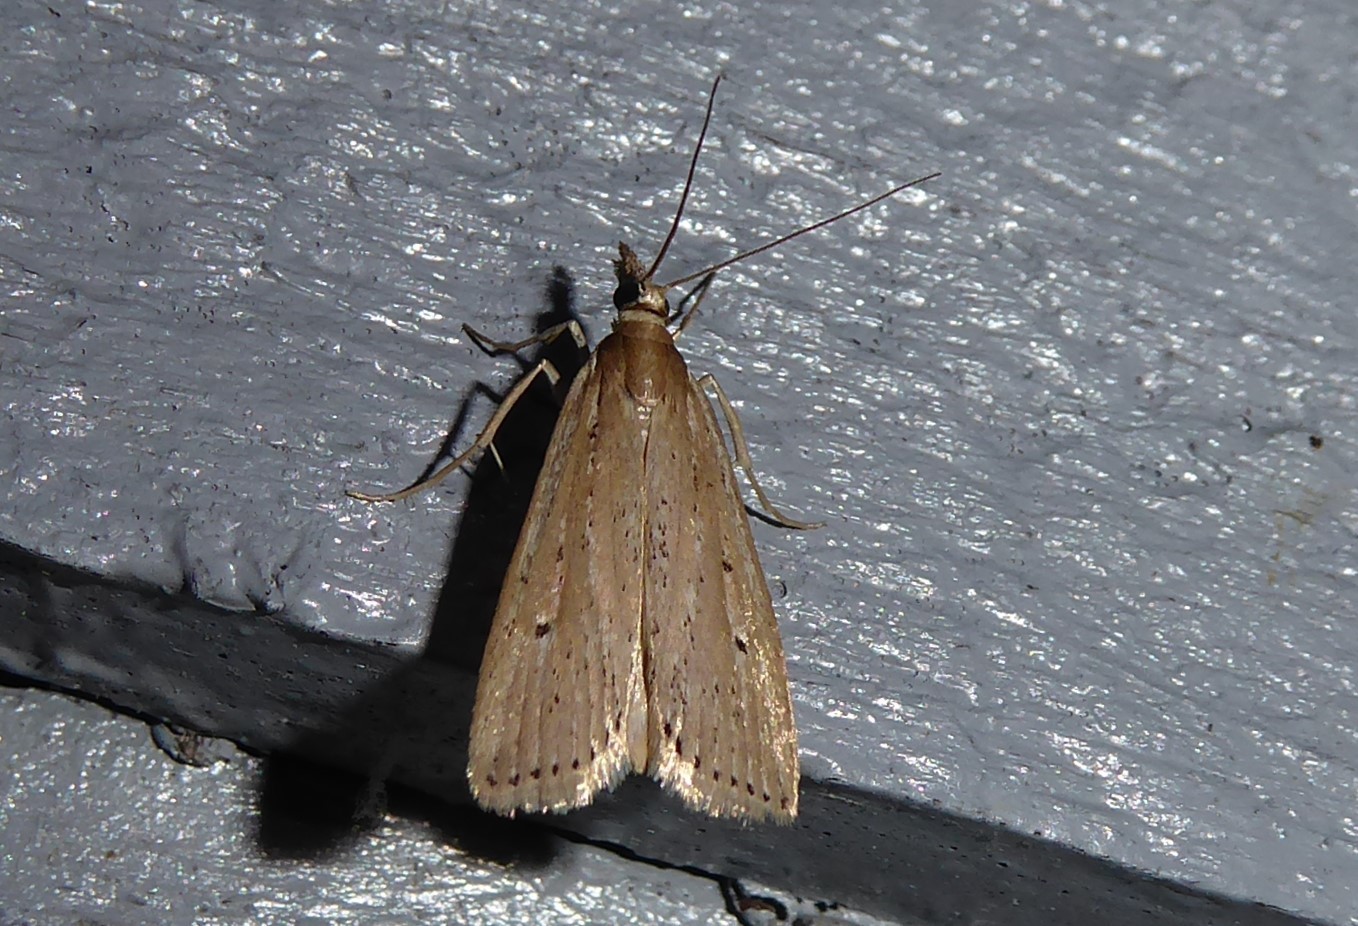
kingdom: Animalia
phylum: Arthropoda
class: Insecta
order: Lepidoptera
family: Crambidae
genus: Eudonia
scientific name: Eudonia sabulosella
